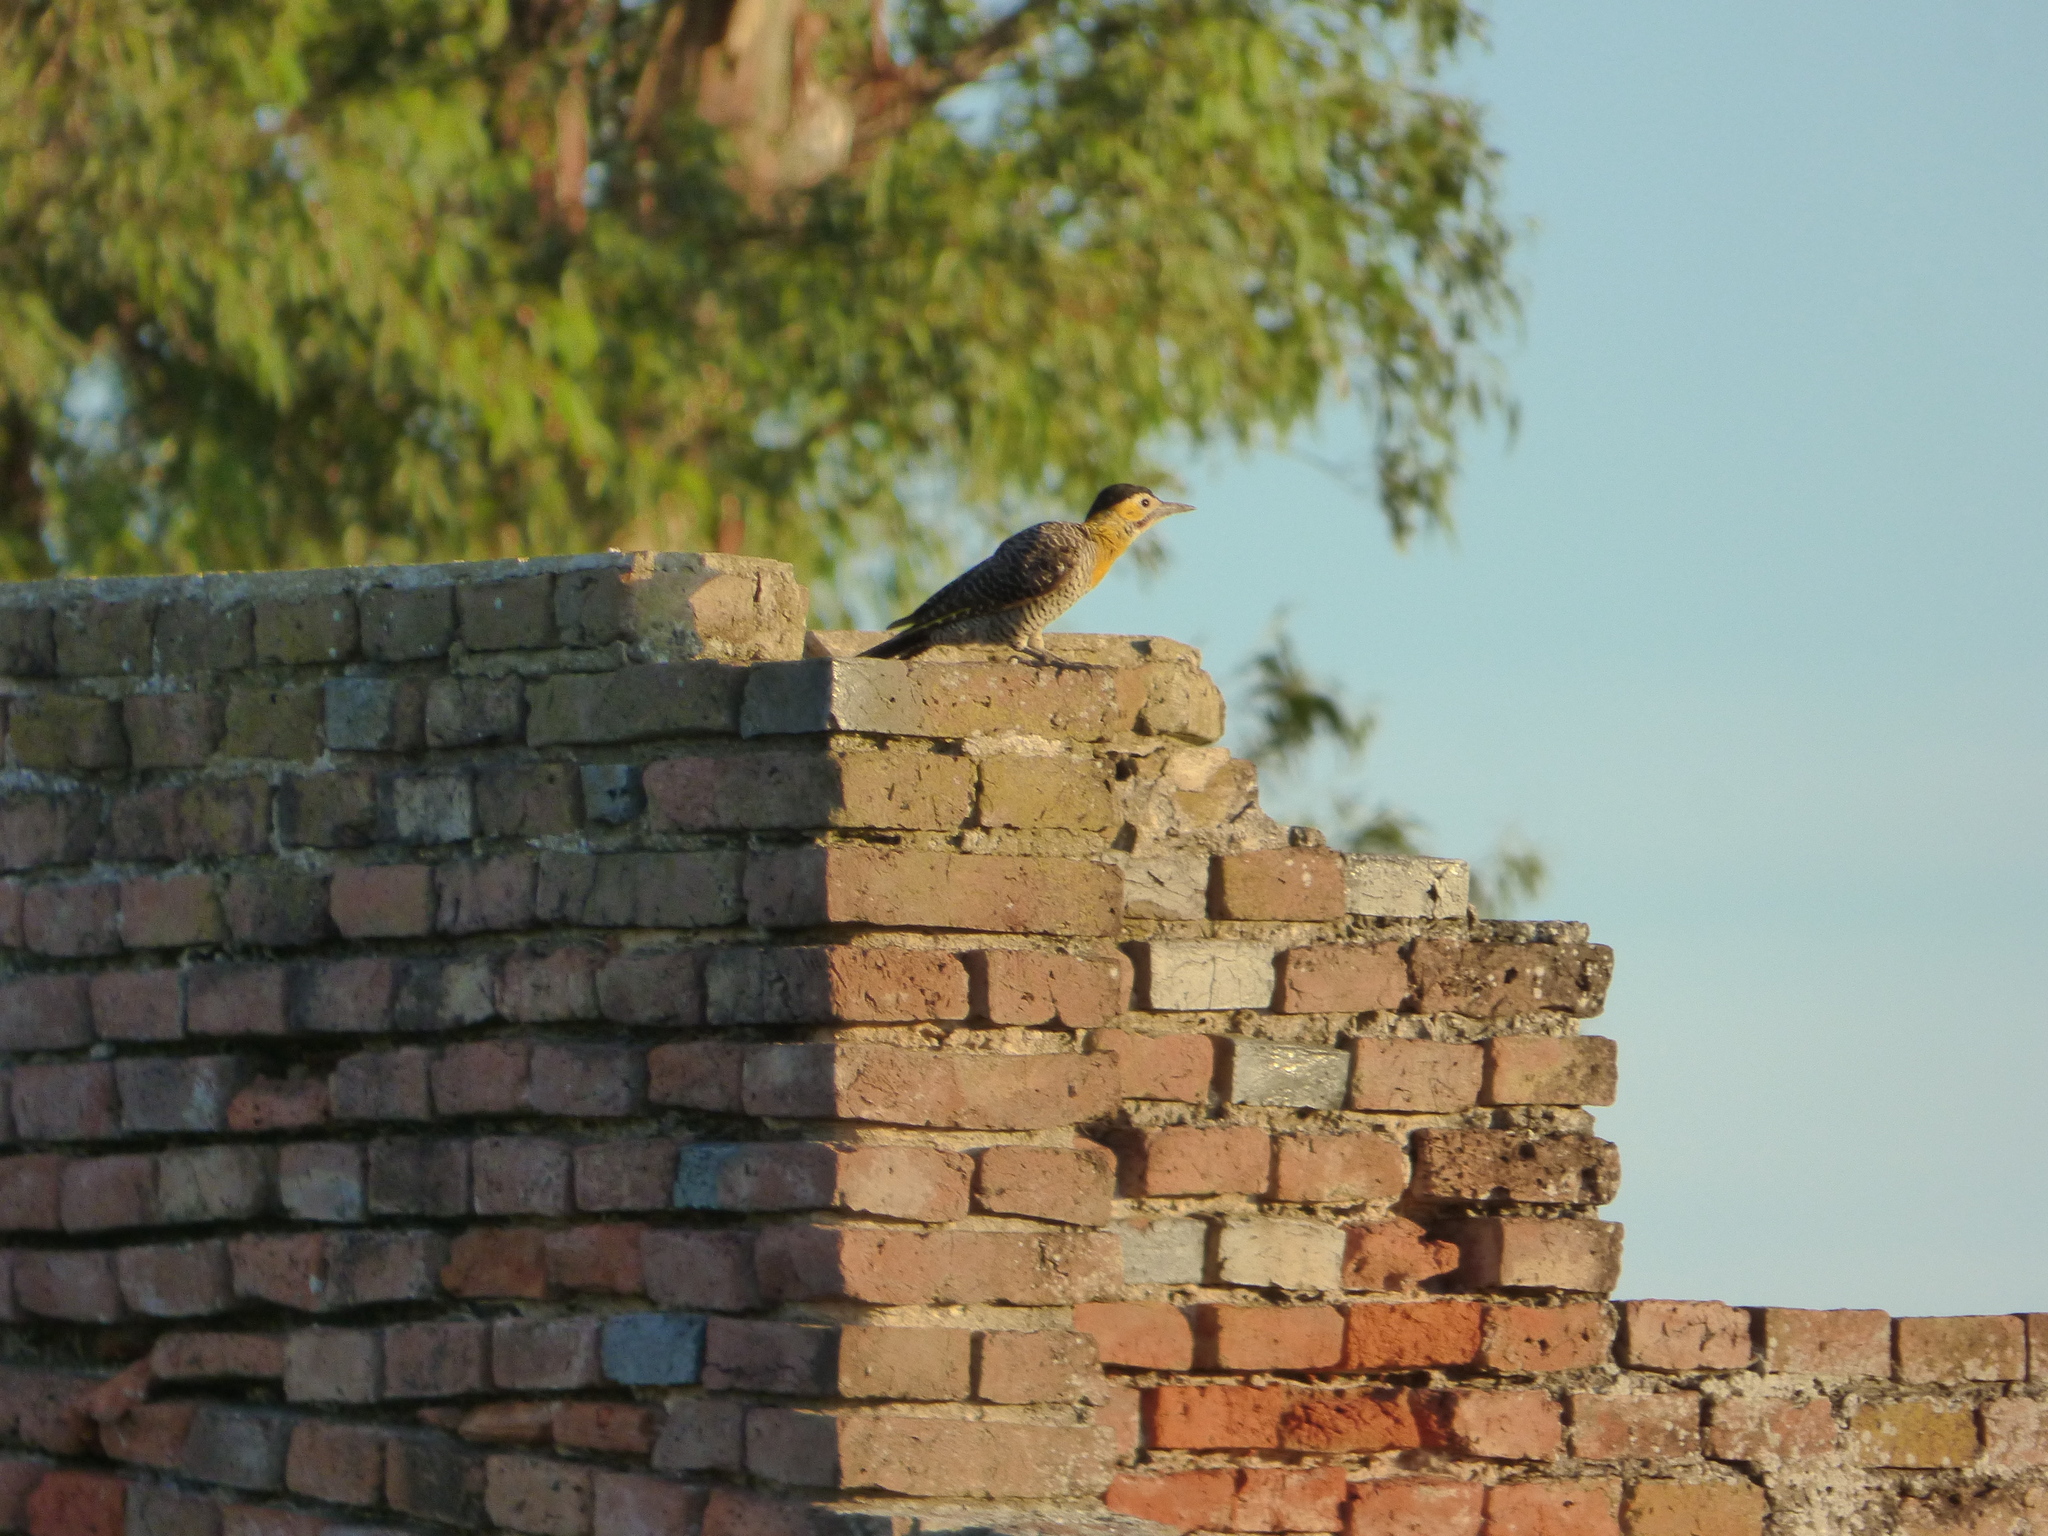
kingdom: Animalia
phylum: Chordata
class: Aves
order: Piciformes
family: Picidae
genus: Colaptes
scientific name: Colaptes campestris
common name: Campo flicker
